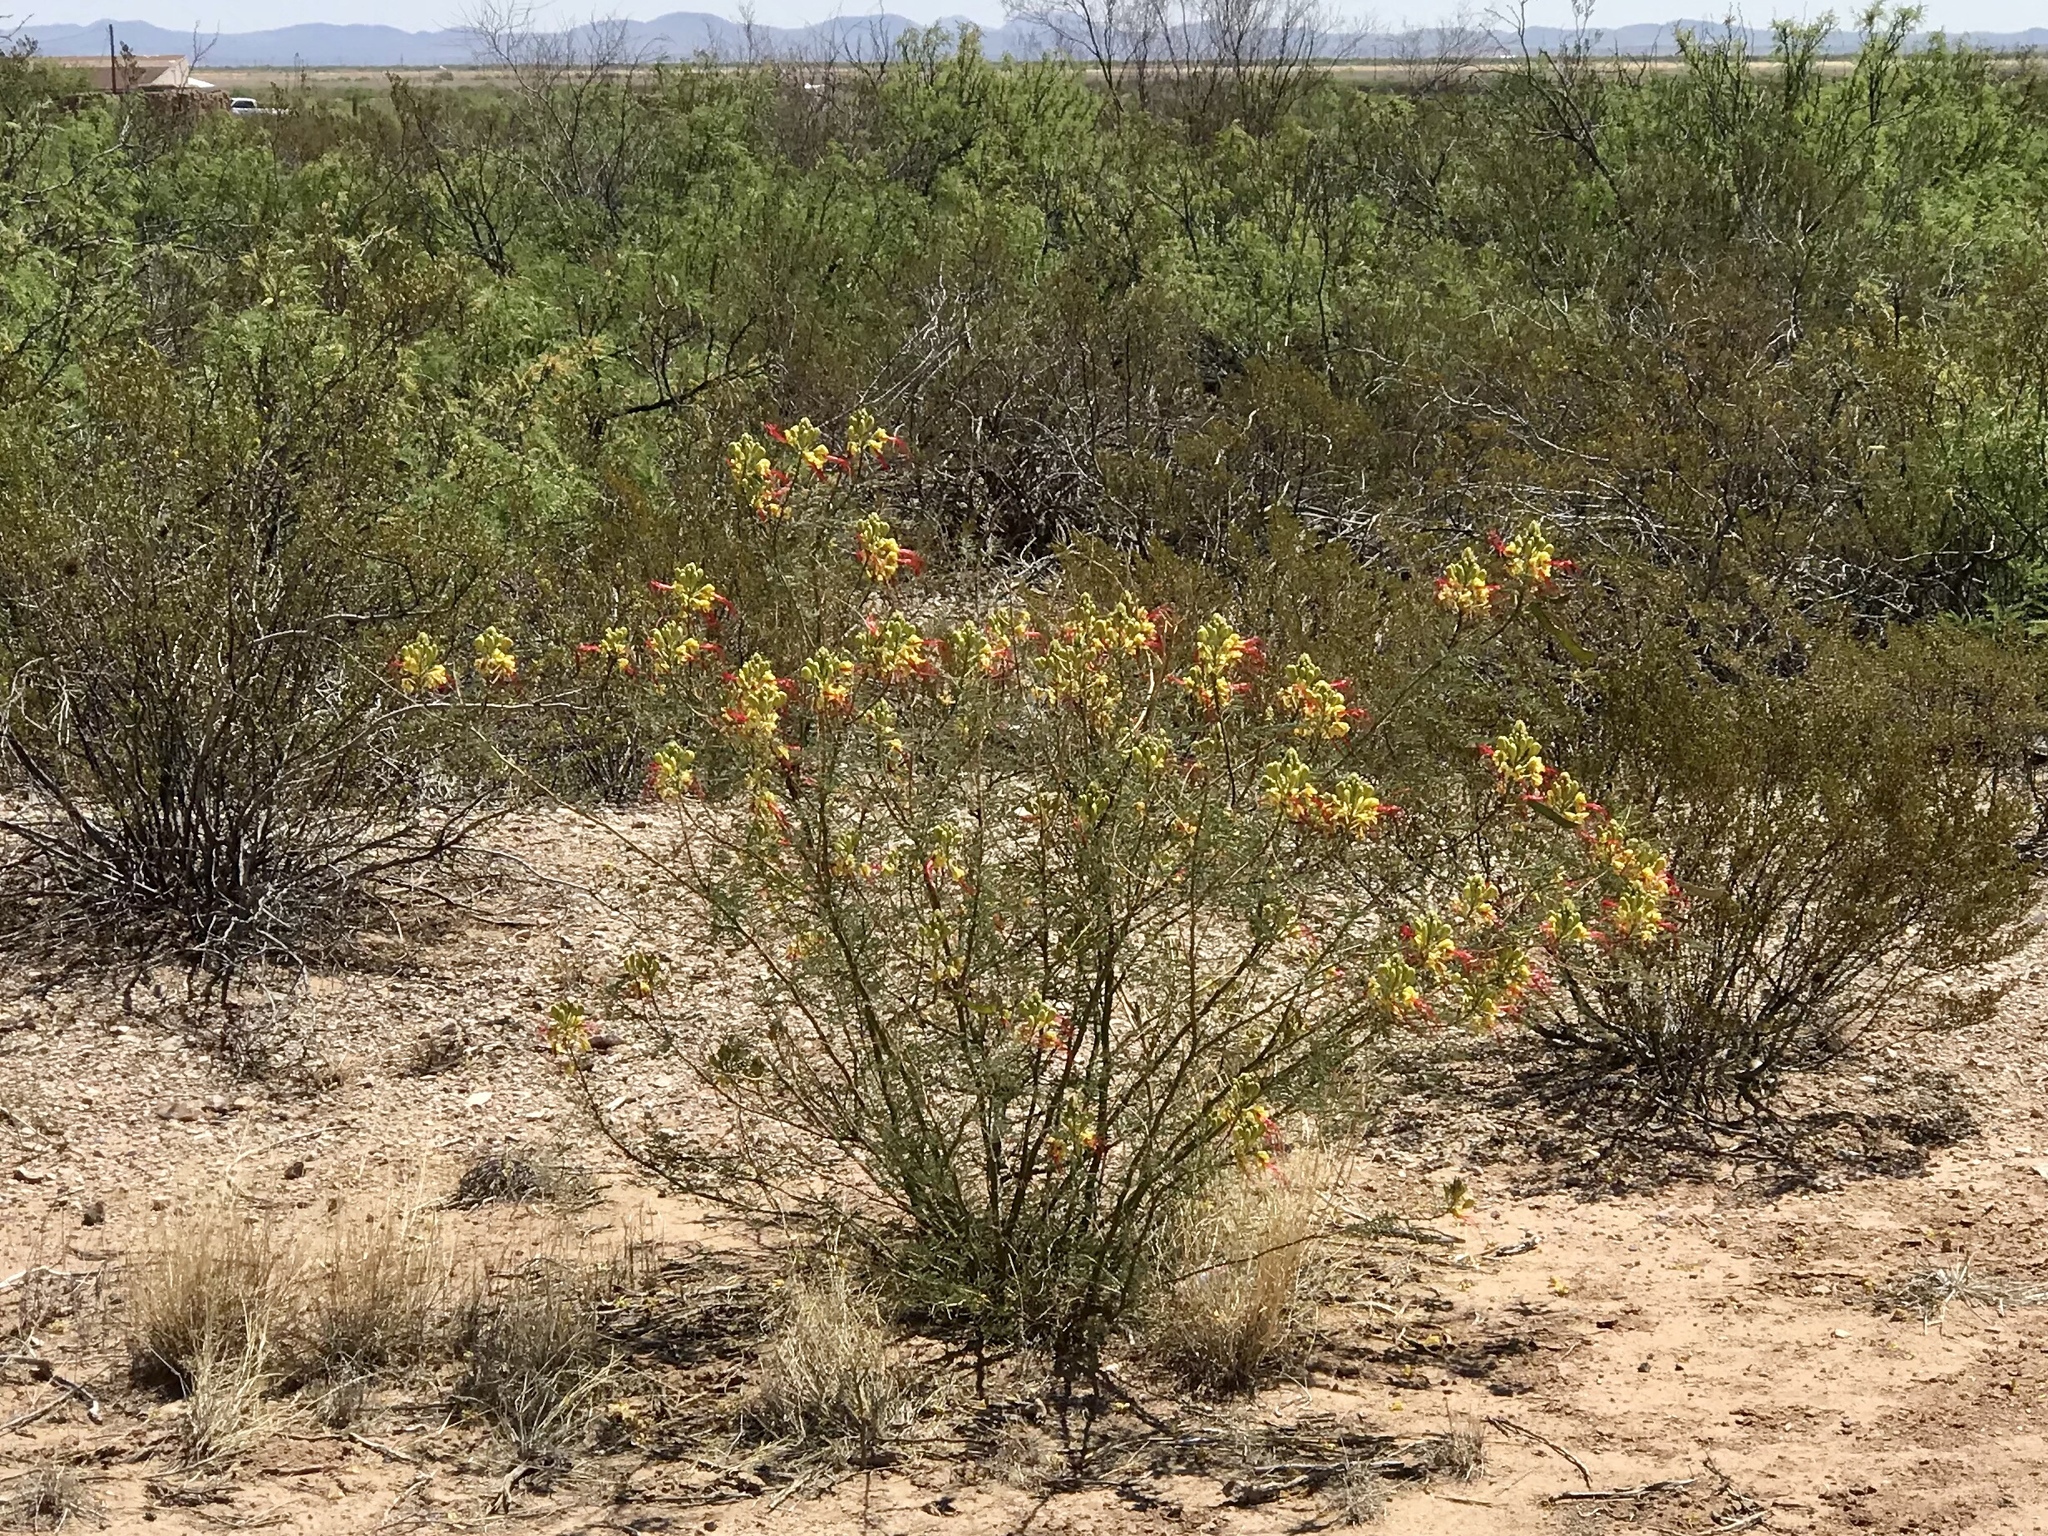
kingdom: Plantae
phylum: Tracheophyta
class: Magnoliopsida
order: Fabales
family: Fabaceae
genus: Erythrostemon
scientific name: Erythrostemon gilliesii
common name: Bird-of-paradise shrub
